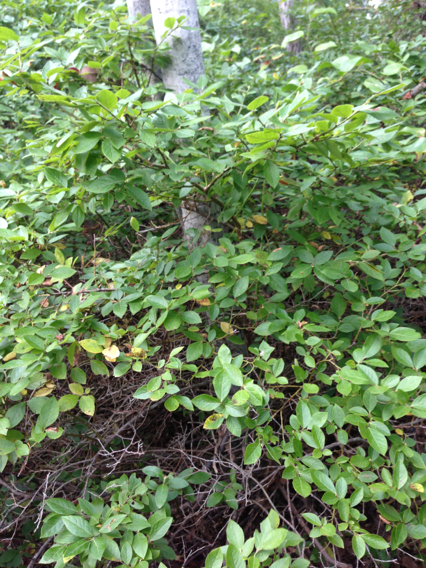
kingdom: Plantae
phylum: Tracheophyta
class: Magnoliopsida
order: Ericales
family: Ericaceae
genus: Vaccinium
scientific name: Vaccinium corymbosum
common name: Blueberry
